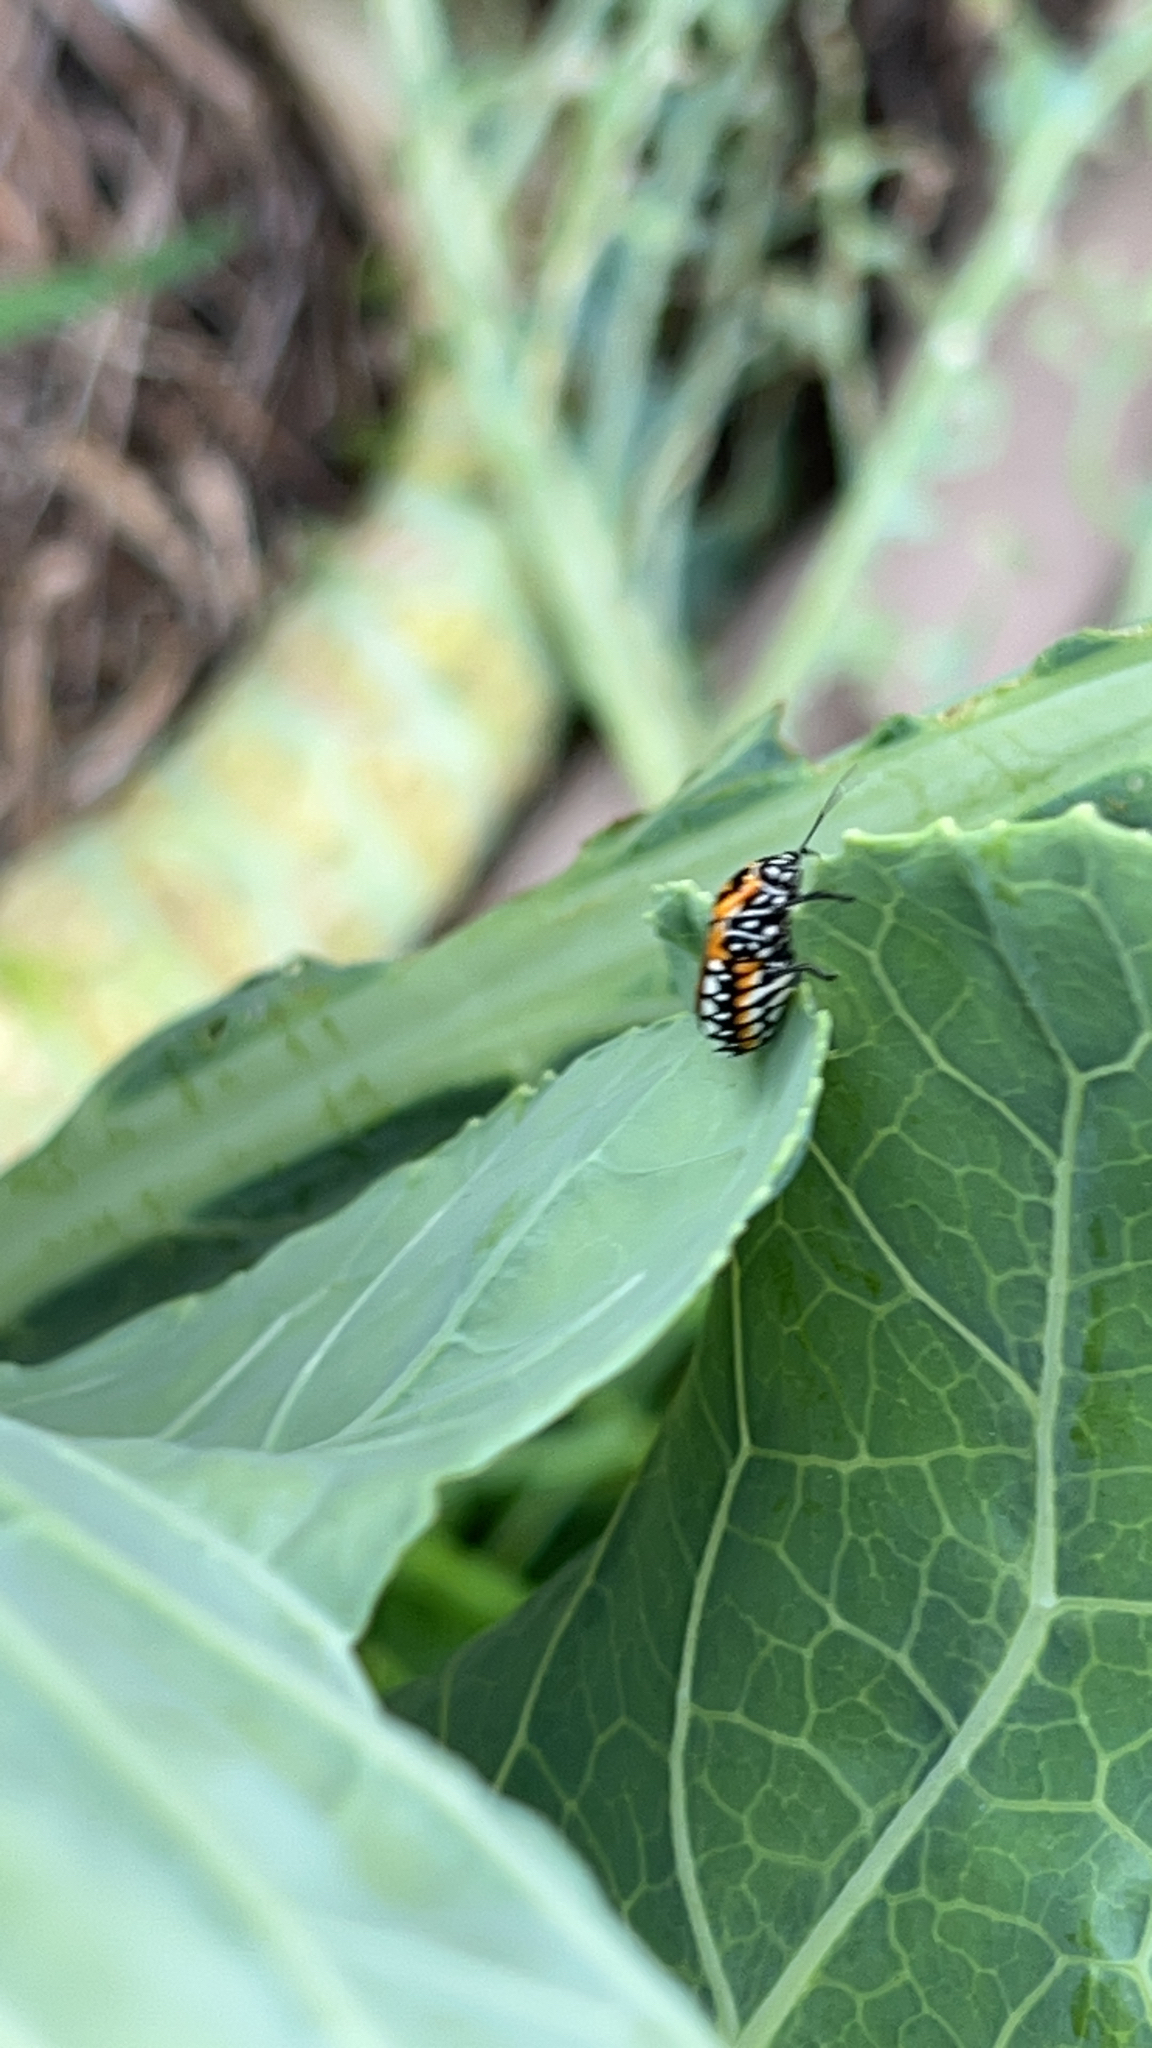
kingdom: Animalia
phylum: Arthropoda
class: Insecta
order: Hemiptera
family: Pentatomidae
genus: Murgantia
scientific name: Murgantia histrionica
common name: Harlequin bug
